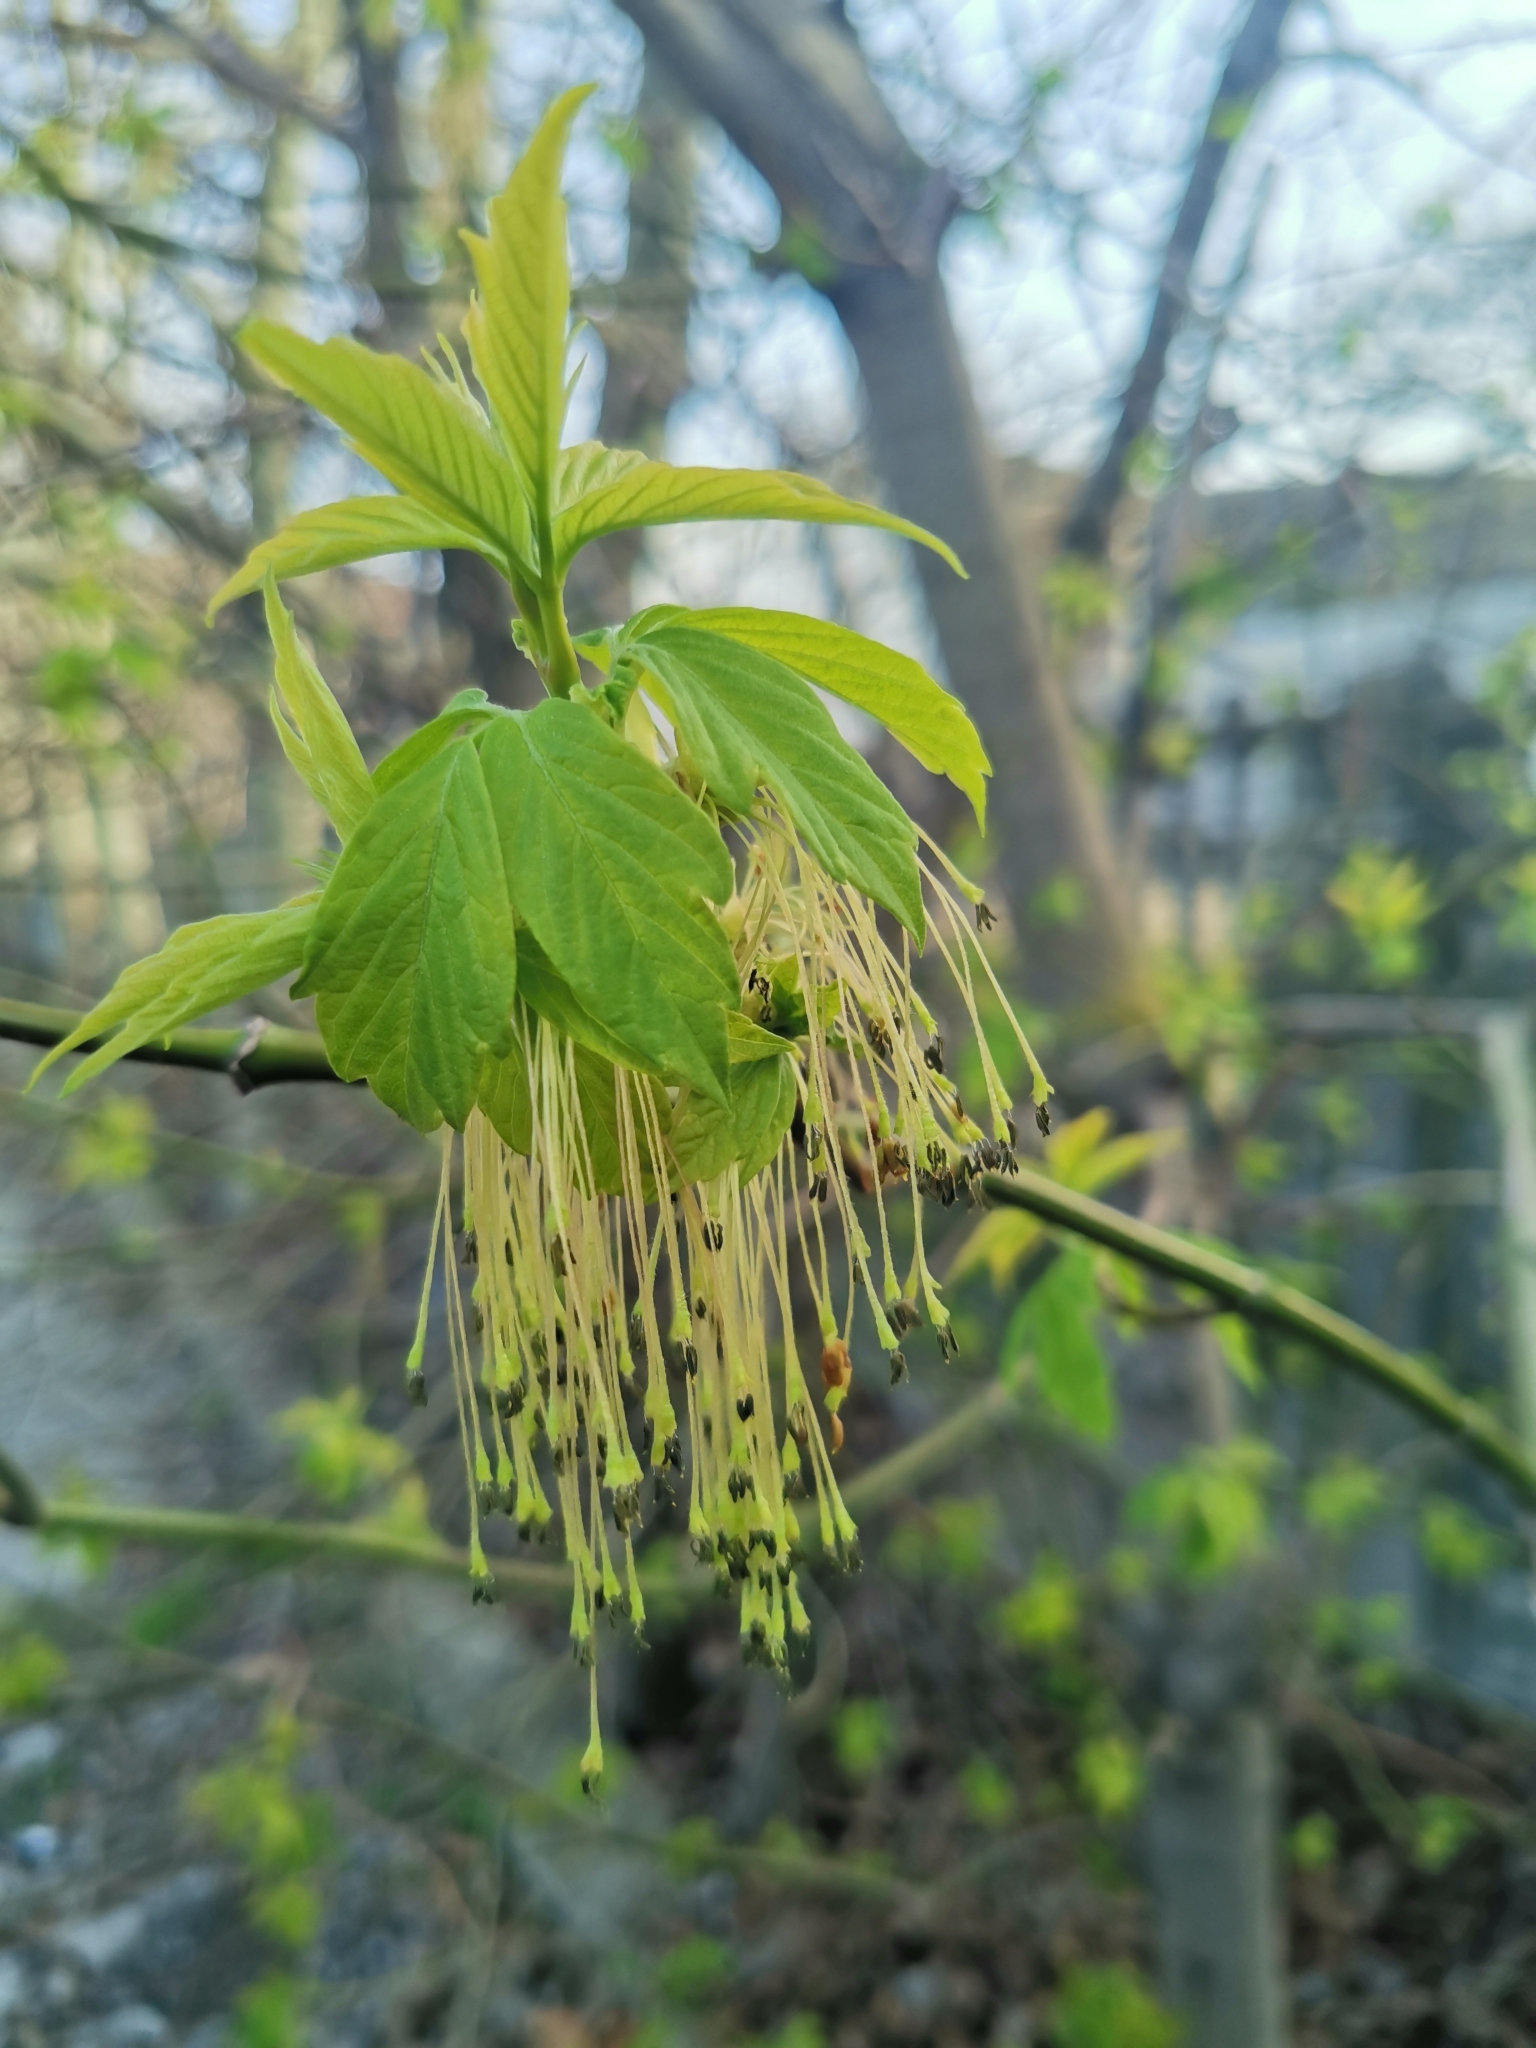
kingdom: Plantae
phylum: Tracheophyta
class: Magnoliopsida
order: Sapindales
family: Sapindaceae
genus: Acer
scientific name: Acer negundo
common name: Ashleaf maple
